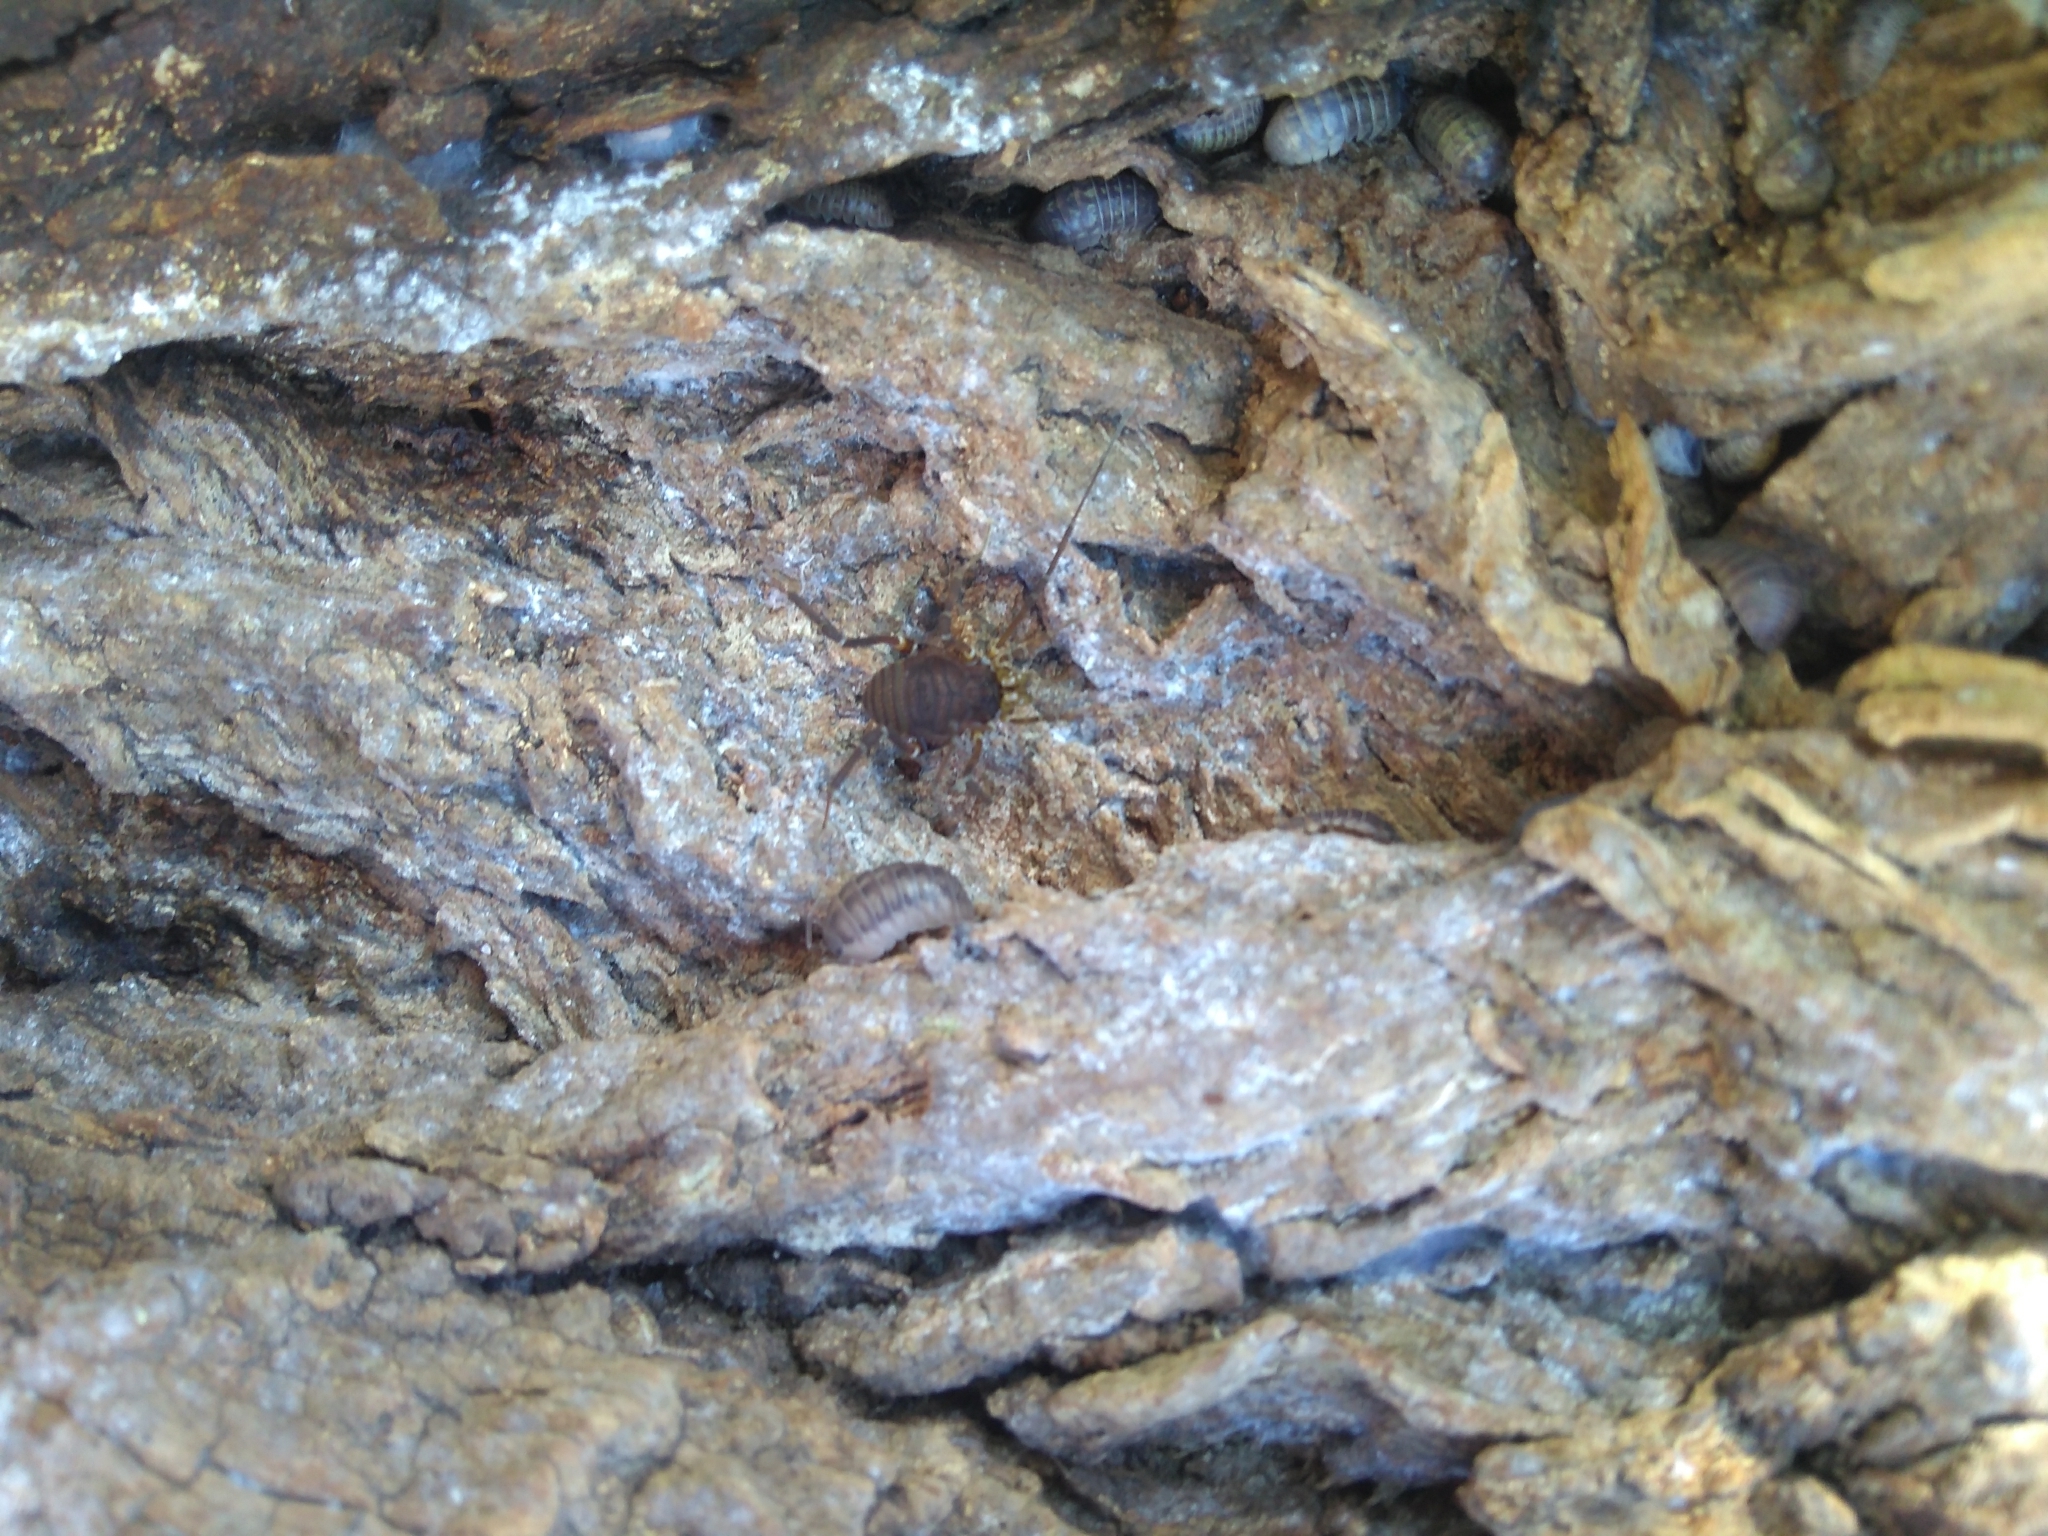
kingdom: Animalia
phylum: Arthropoda
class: Arachnida
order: Opiliones
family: Gonyleptidae
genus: Opisthoplatus
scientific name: Opisthoplatus prospicuus
